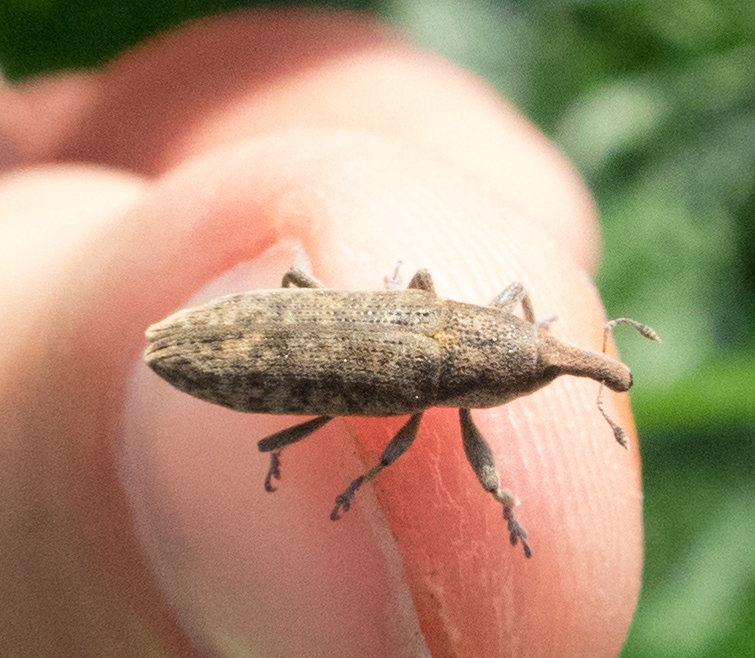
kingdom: Animalia
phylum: Arthropoda
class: Insecta
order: Coleoptera
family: Curculionidae
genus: Lixus
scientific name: Lixus subtilis
